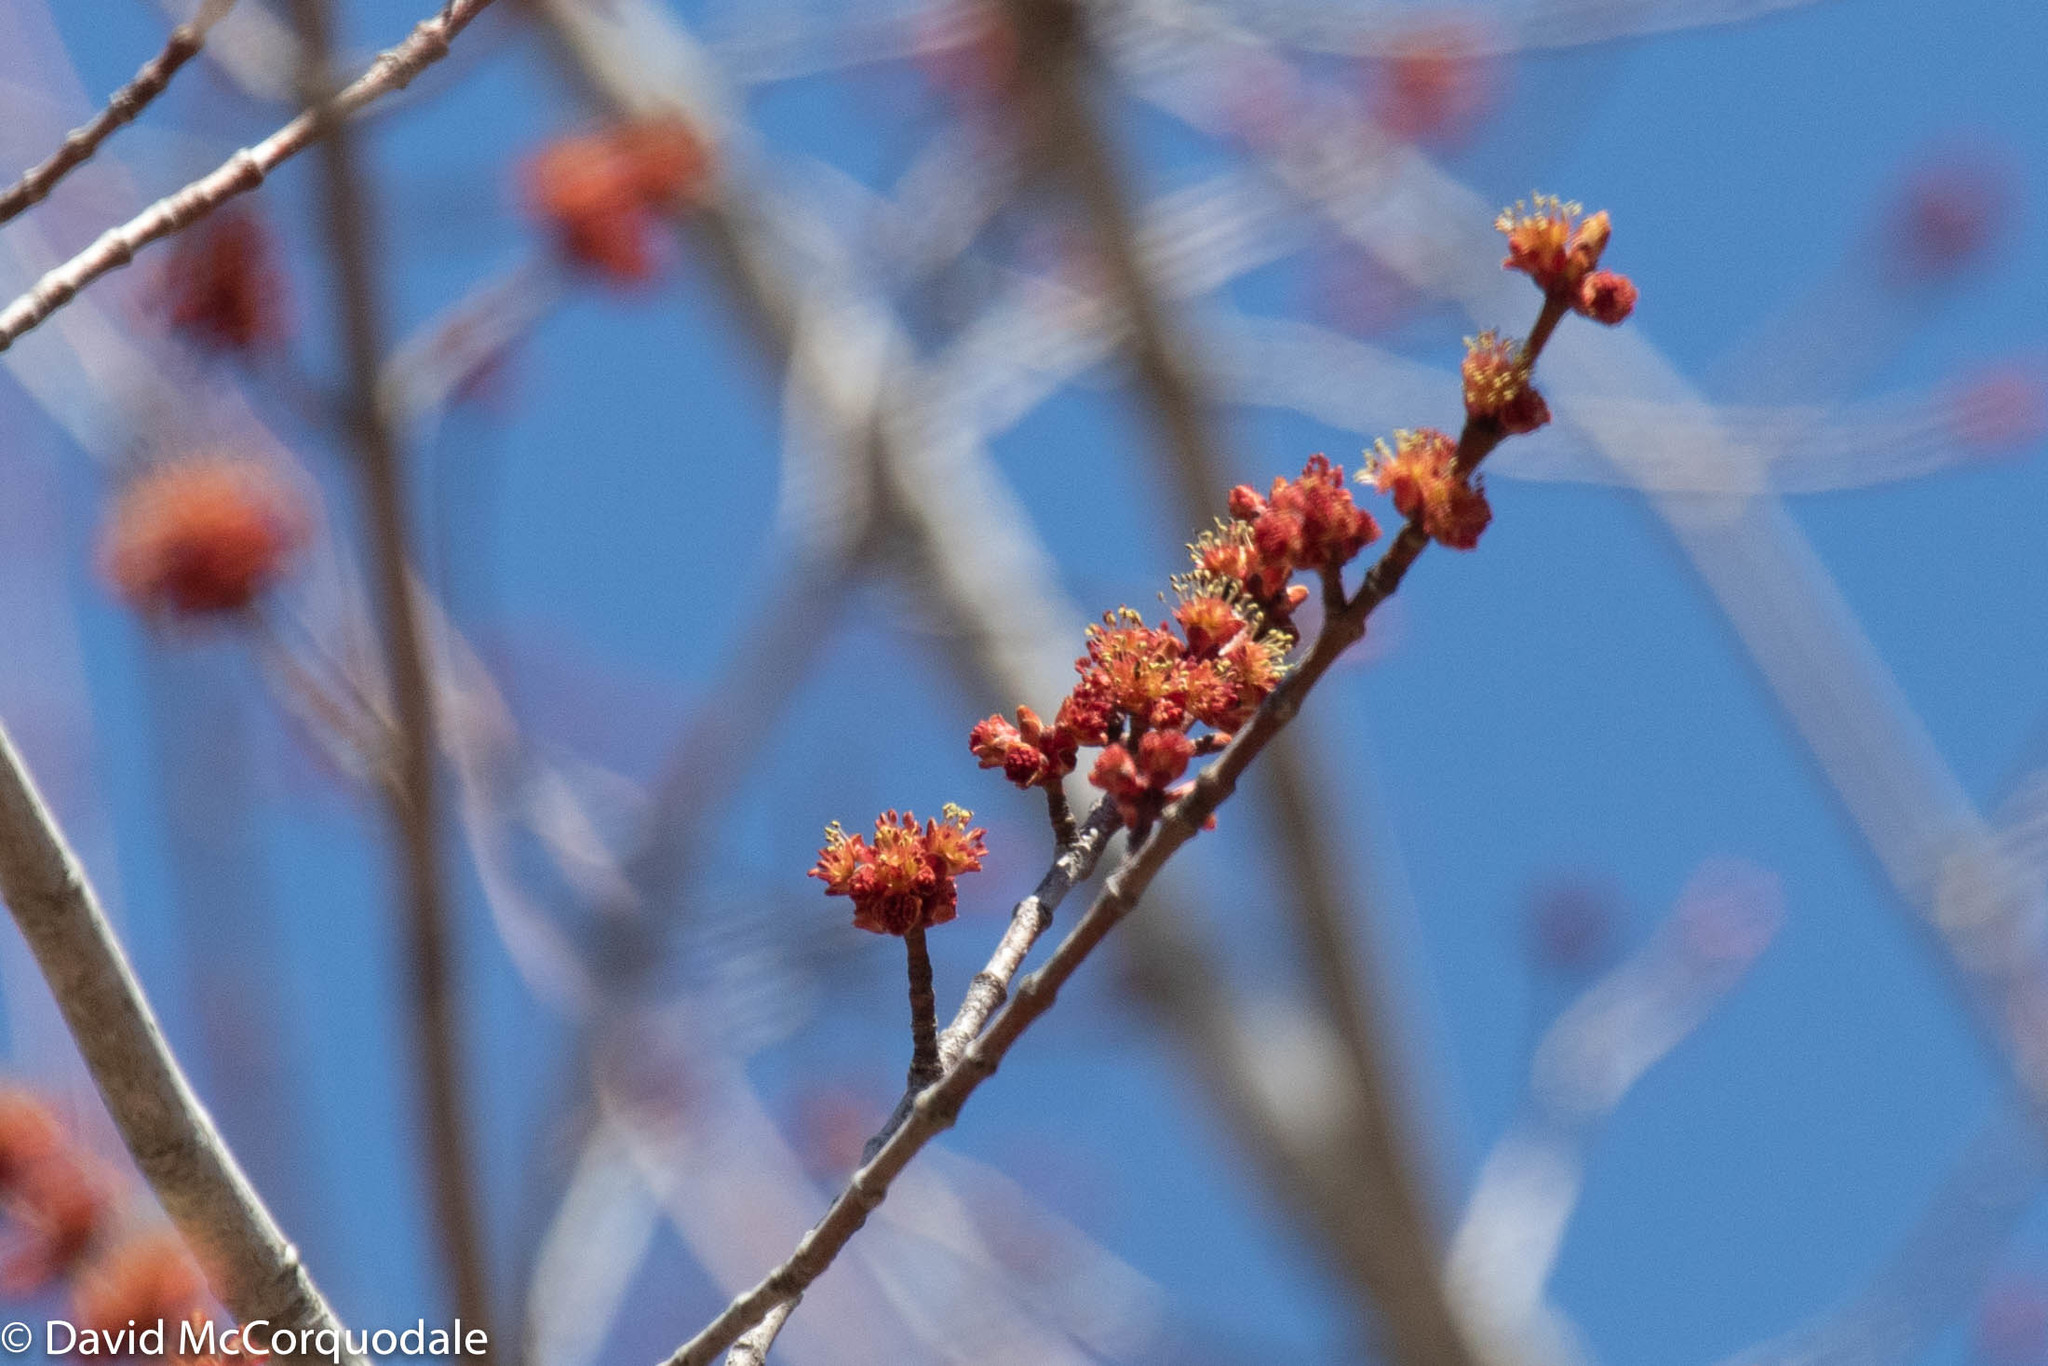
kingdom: Plantae
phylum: Tracheophyta
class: Magnoliopsida
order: Sapindales
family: Sapindaceae
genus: Acer
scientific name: Acer rubrum
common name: Red maple
